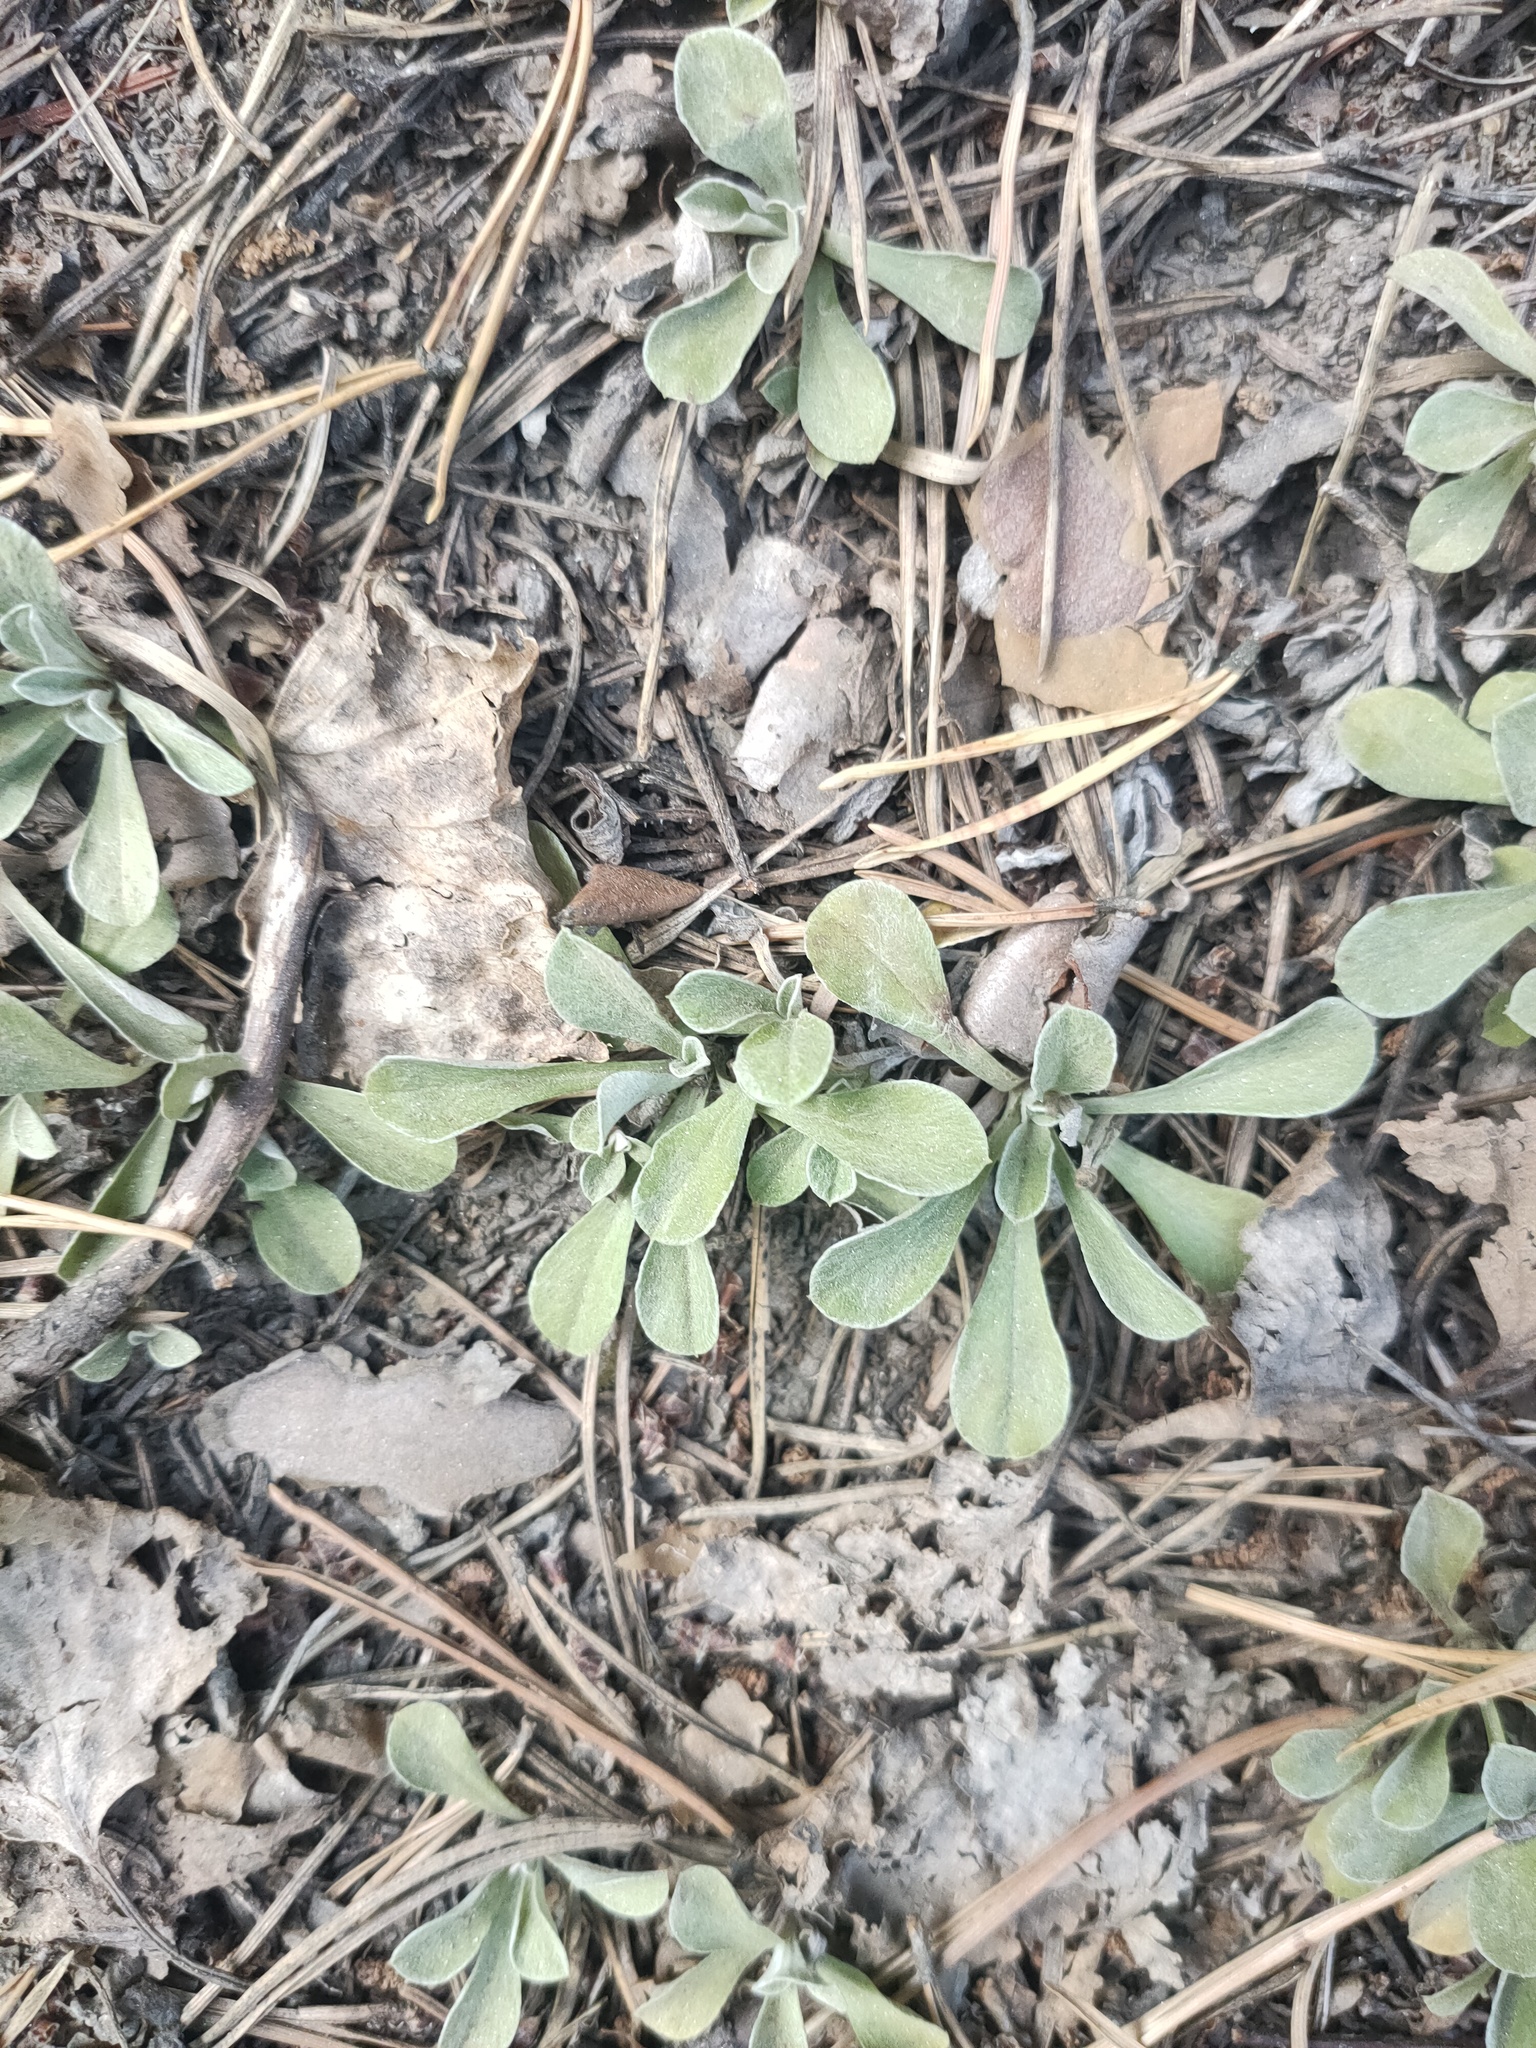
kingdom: Plantae
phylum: Tracheophyta
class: Magnoliopsida
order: Asterales
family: Asteraceae
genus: Antennaria
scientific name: Antennaria dioica
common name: Mountain everlasting
